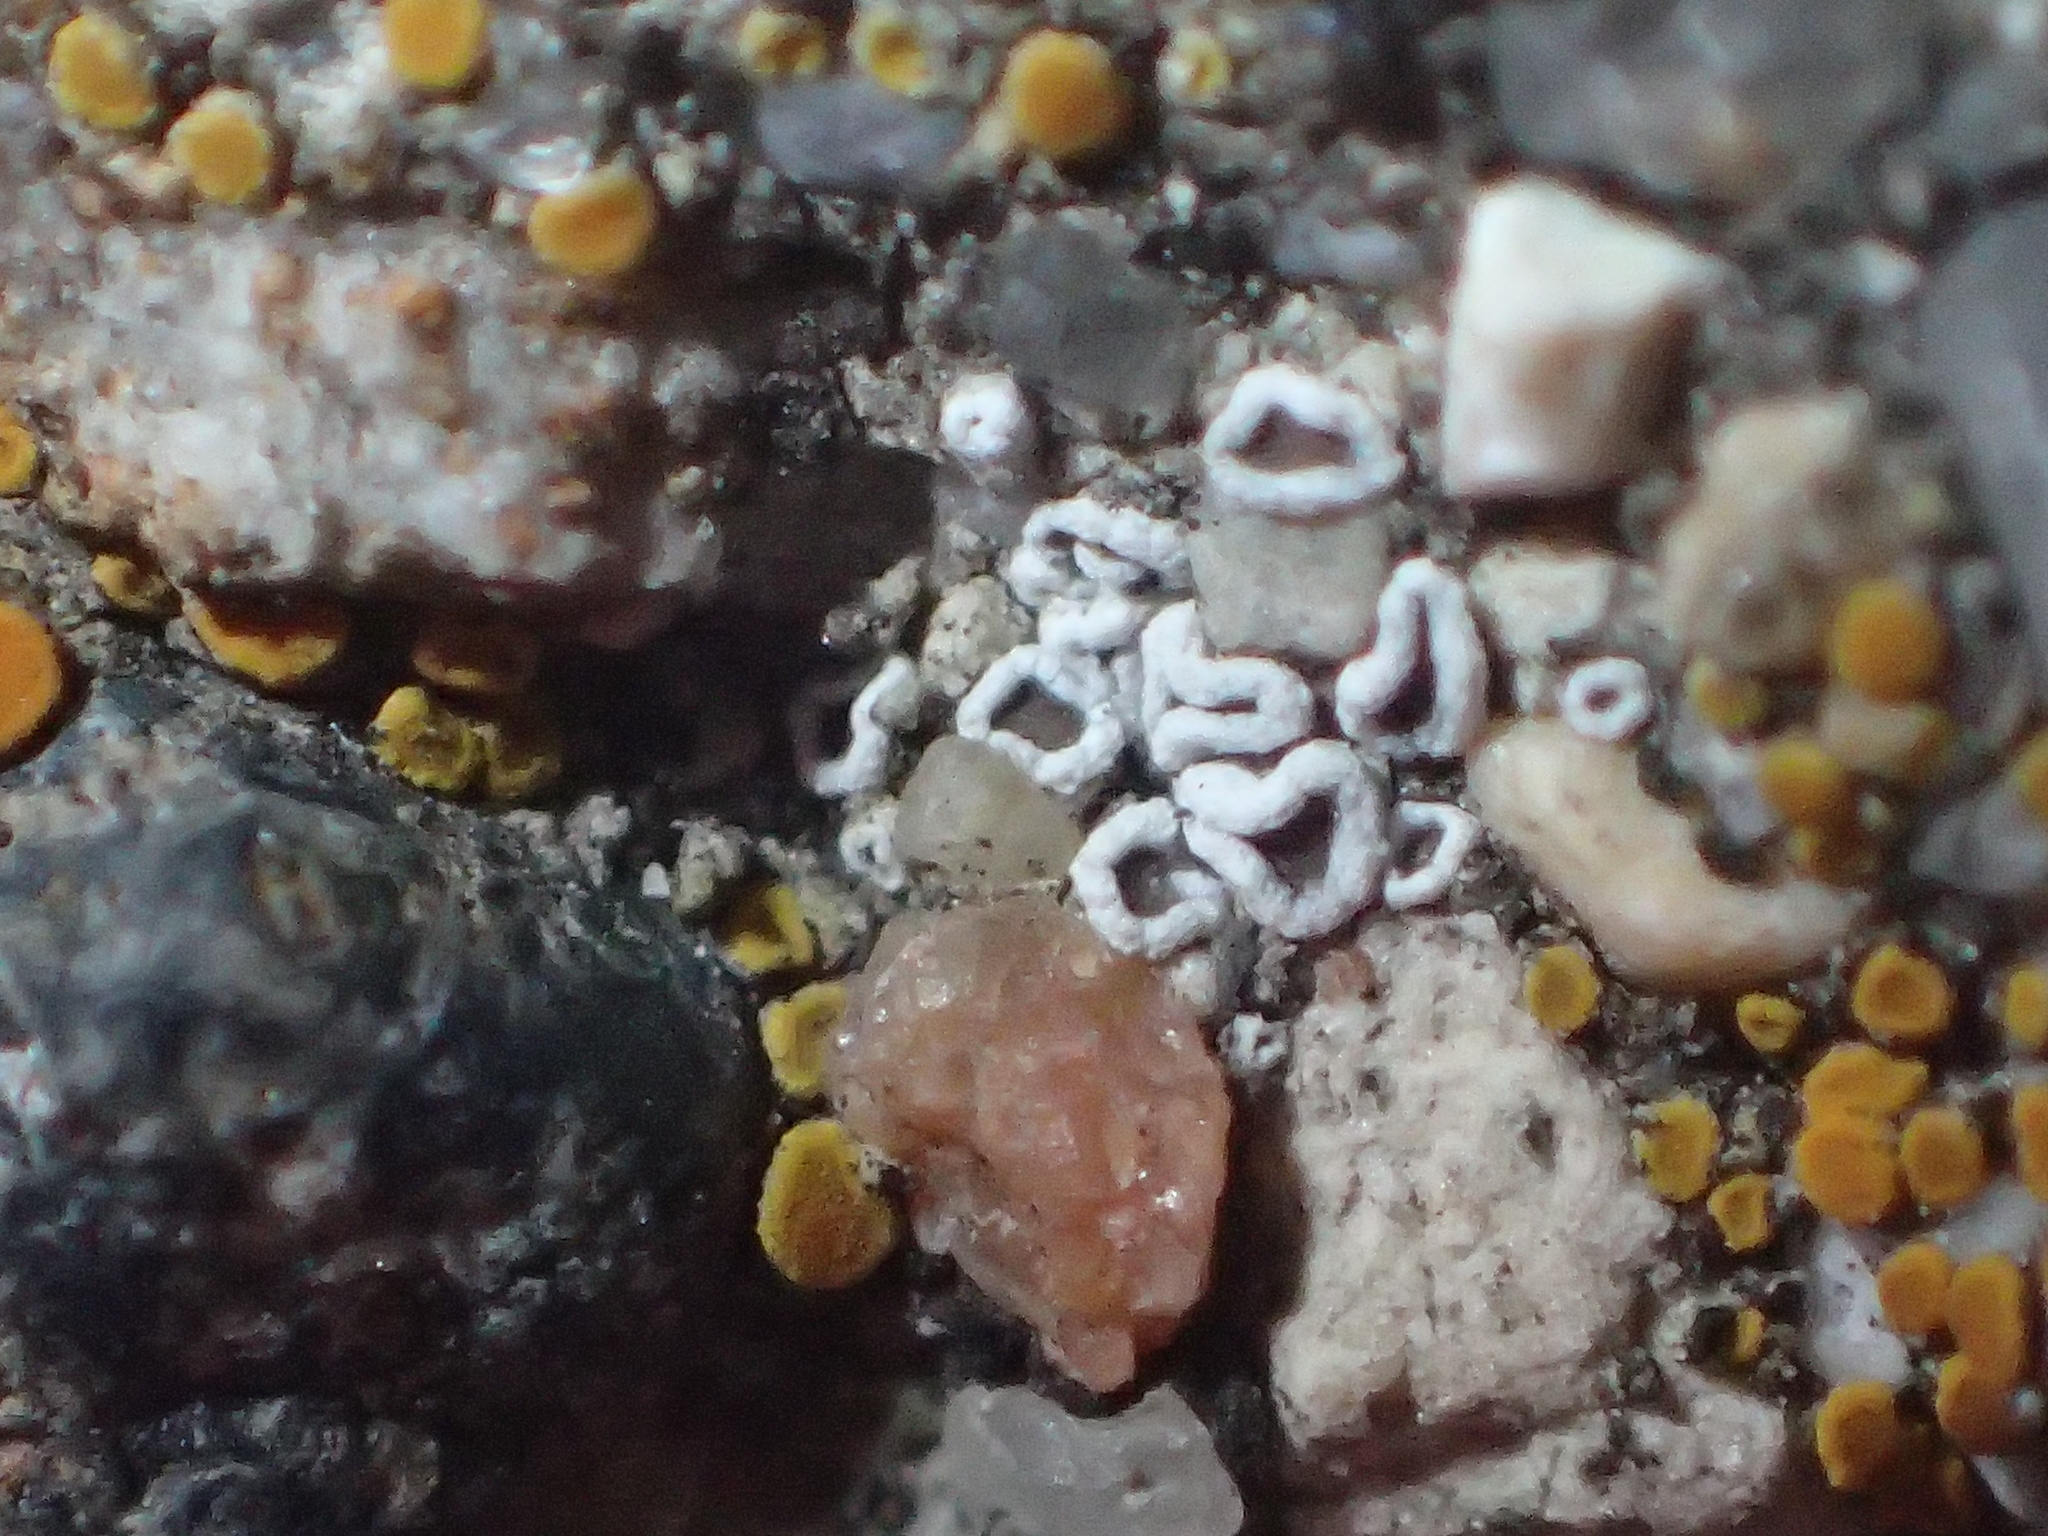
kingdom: Fungi
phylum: Ascomycota
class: Lecanoromycetes
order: Lecanorales
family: Lecanoraceae
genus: Polyozosia
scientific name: Polyozosia dispersa
